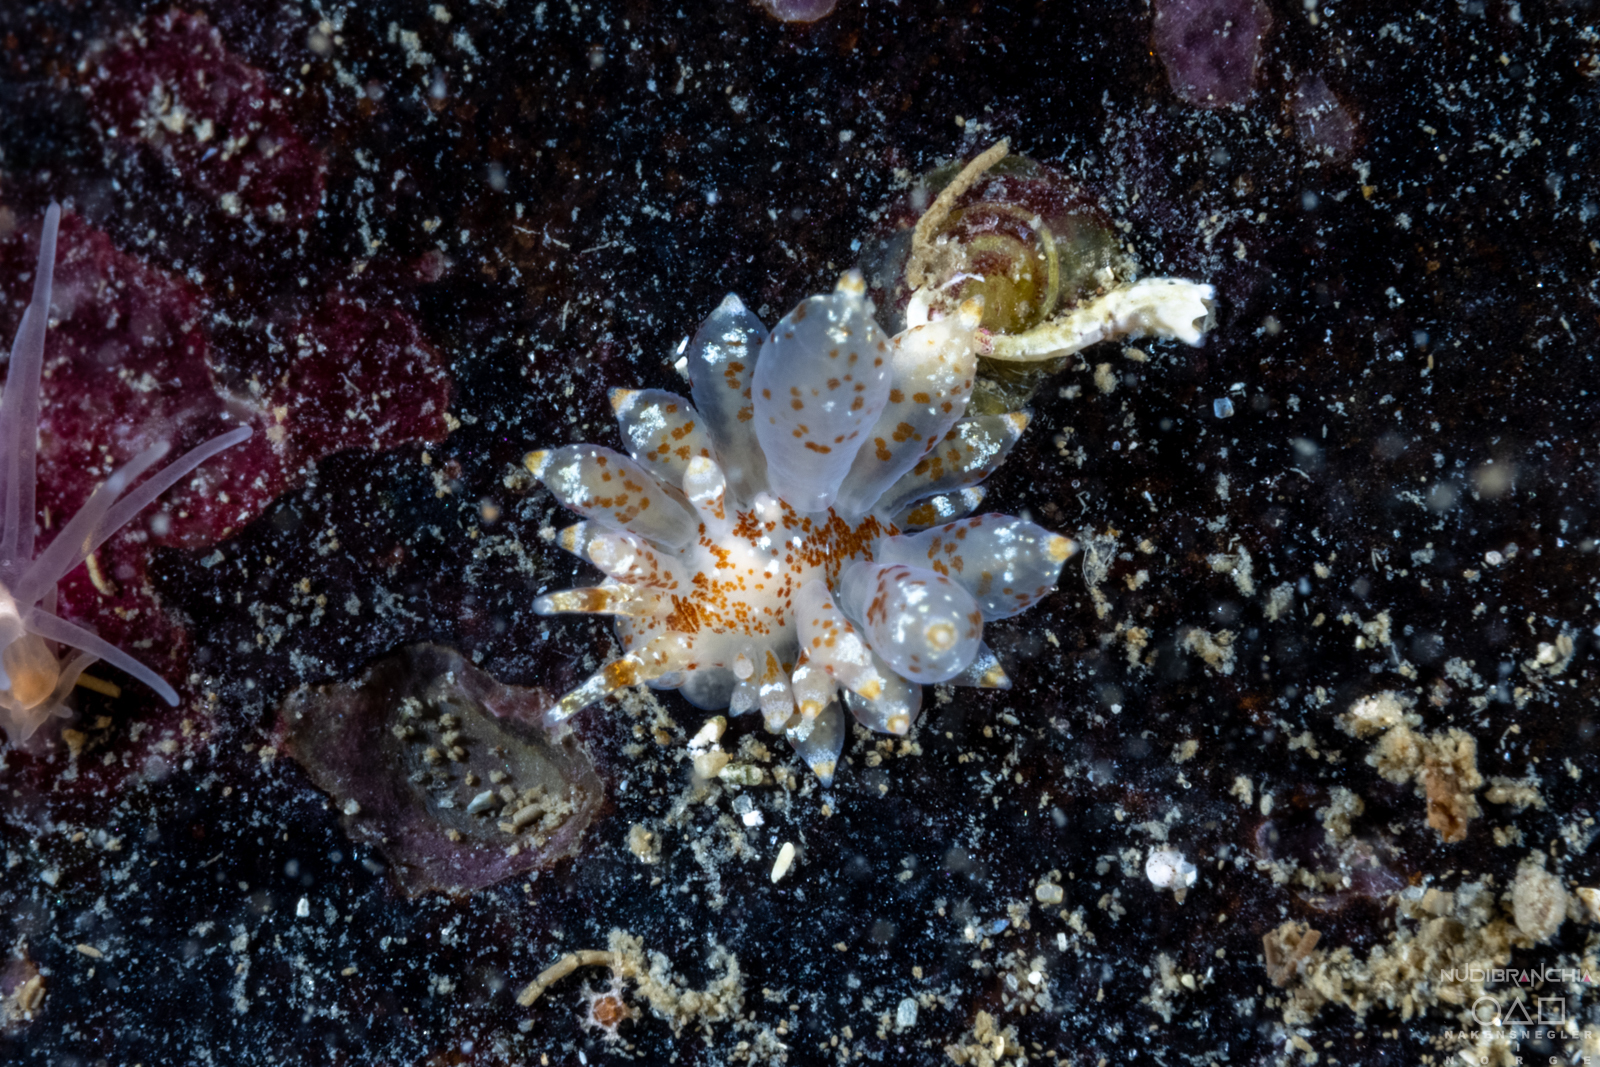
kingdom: Animalia
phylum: Mollusca
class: Gastropoda
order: Nudibranchia
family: Eubranchidae
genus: Amphorina
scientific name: Amphorina pallida
